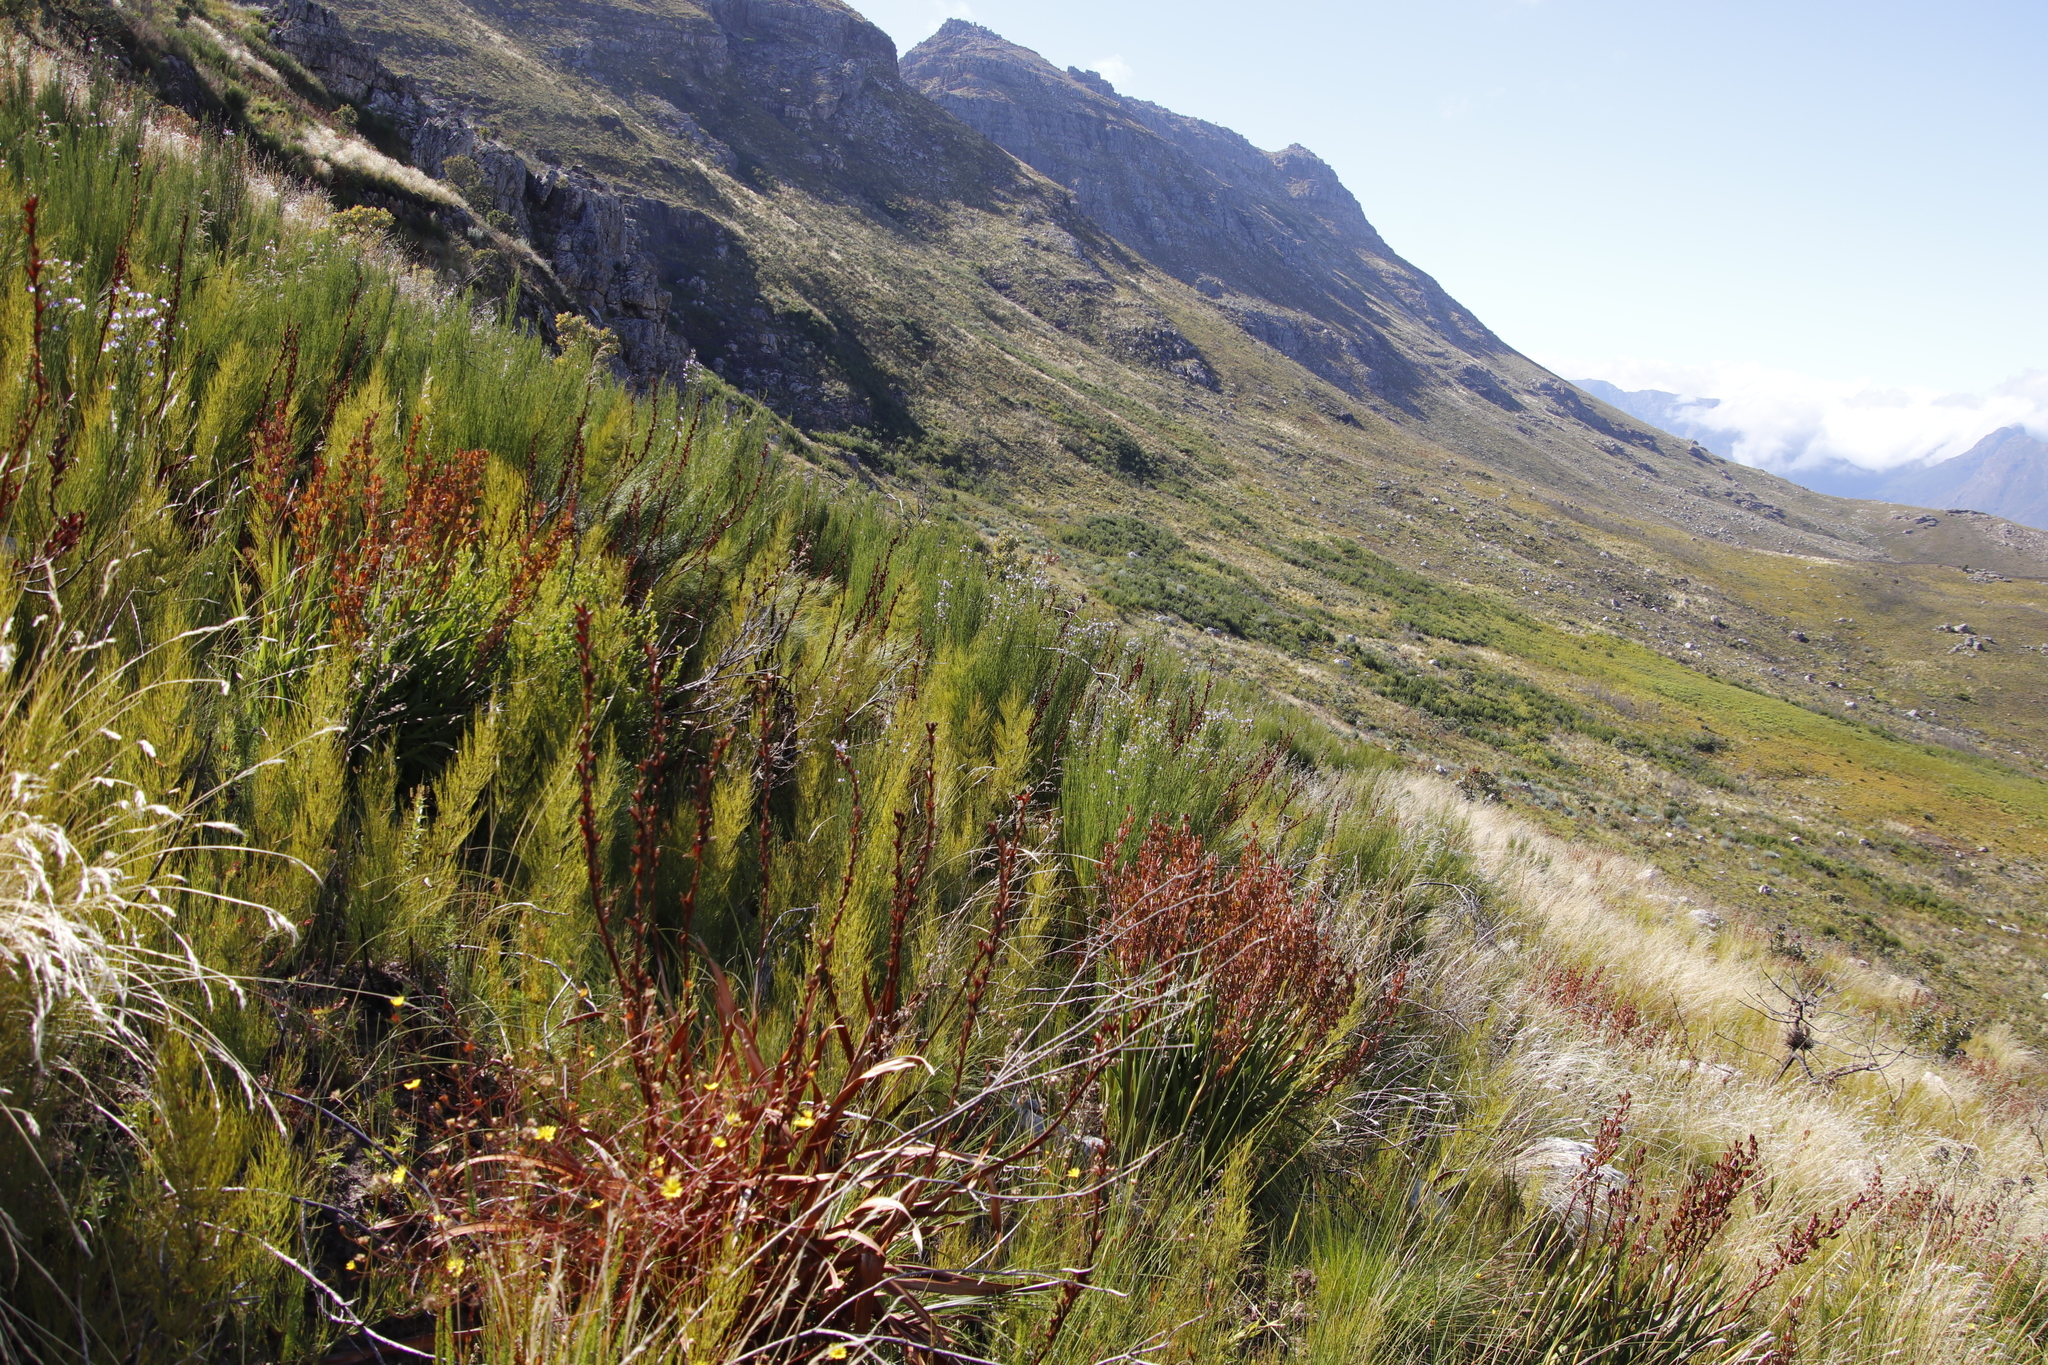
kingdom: Plantae
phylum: Tracheophyta
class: Liliopsida
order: Poales
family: Restionaceae
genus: Elegia
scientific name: Elegia capensis
